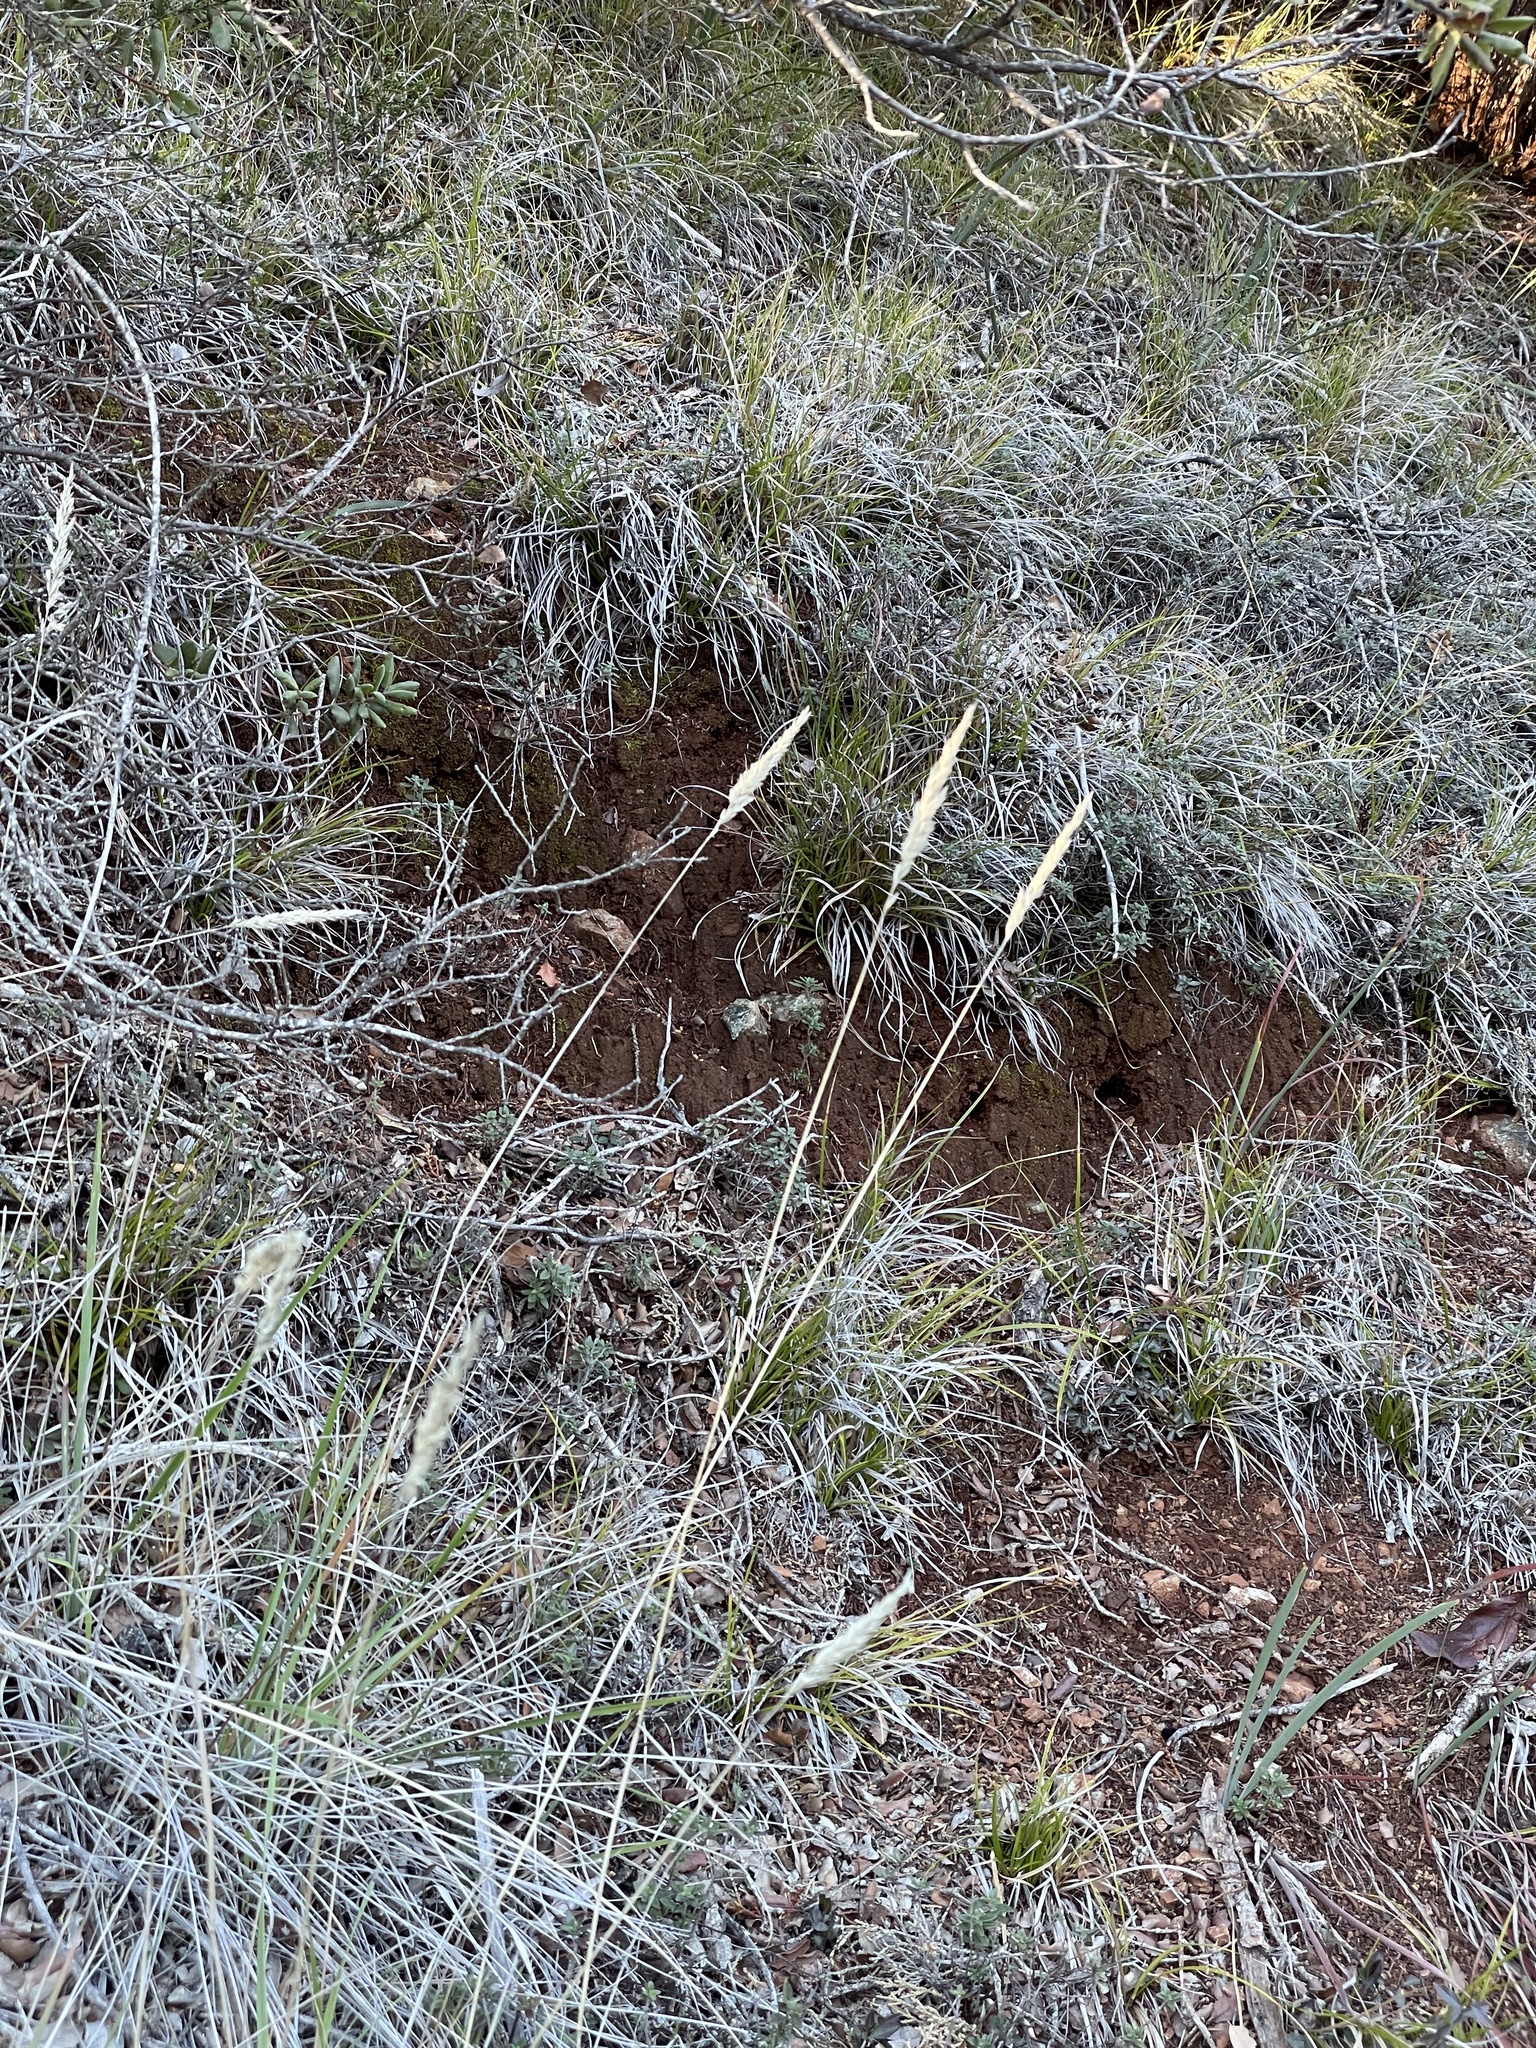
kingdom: Plantae
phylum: Tracheophyta
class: Liliopsida
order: Poales
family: Poaceae
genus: Calamagrostis
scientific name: Calamagrostis ophitidis
